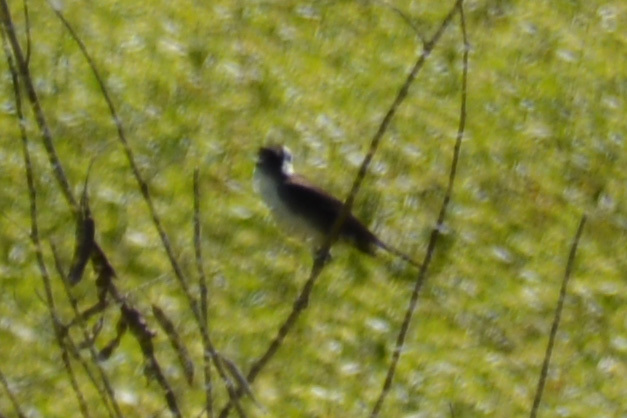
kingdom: Animalia
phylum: Chordata
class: Aves
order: Passeriformes
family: Tyrannidae
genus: Fluvicola
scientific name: Fluvicola pica
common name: Pied water-tyrant
